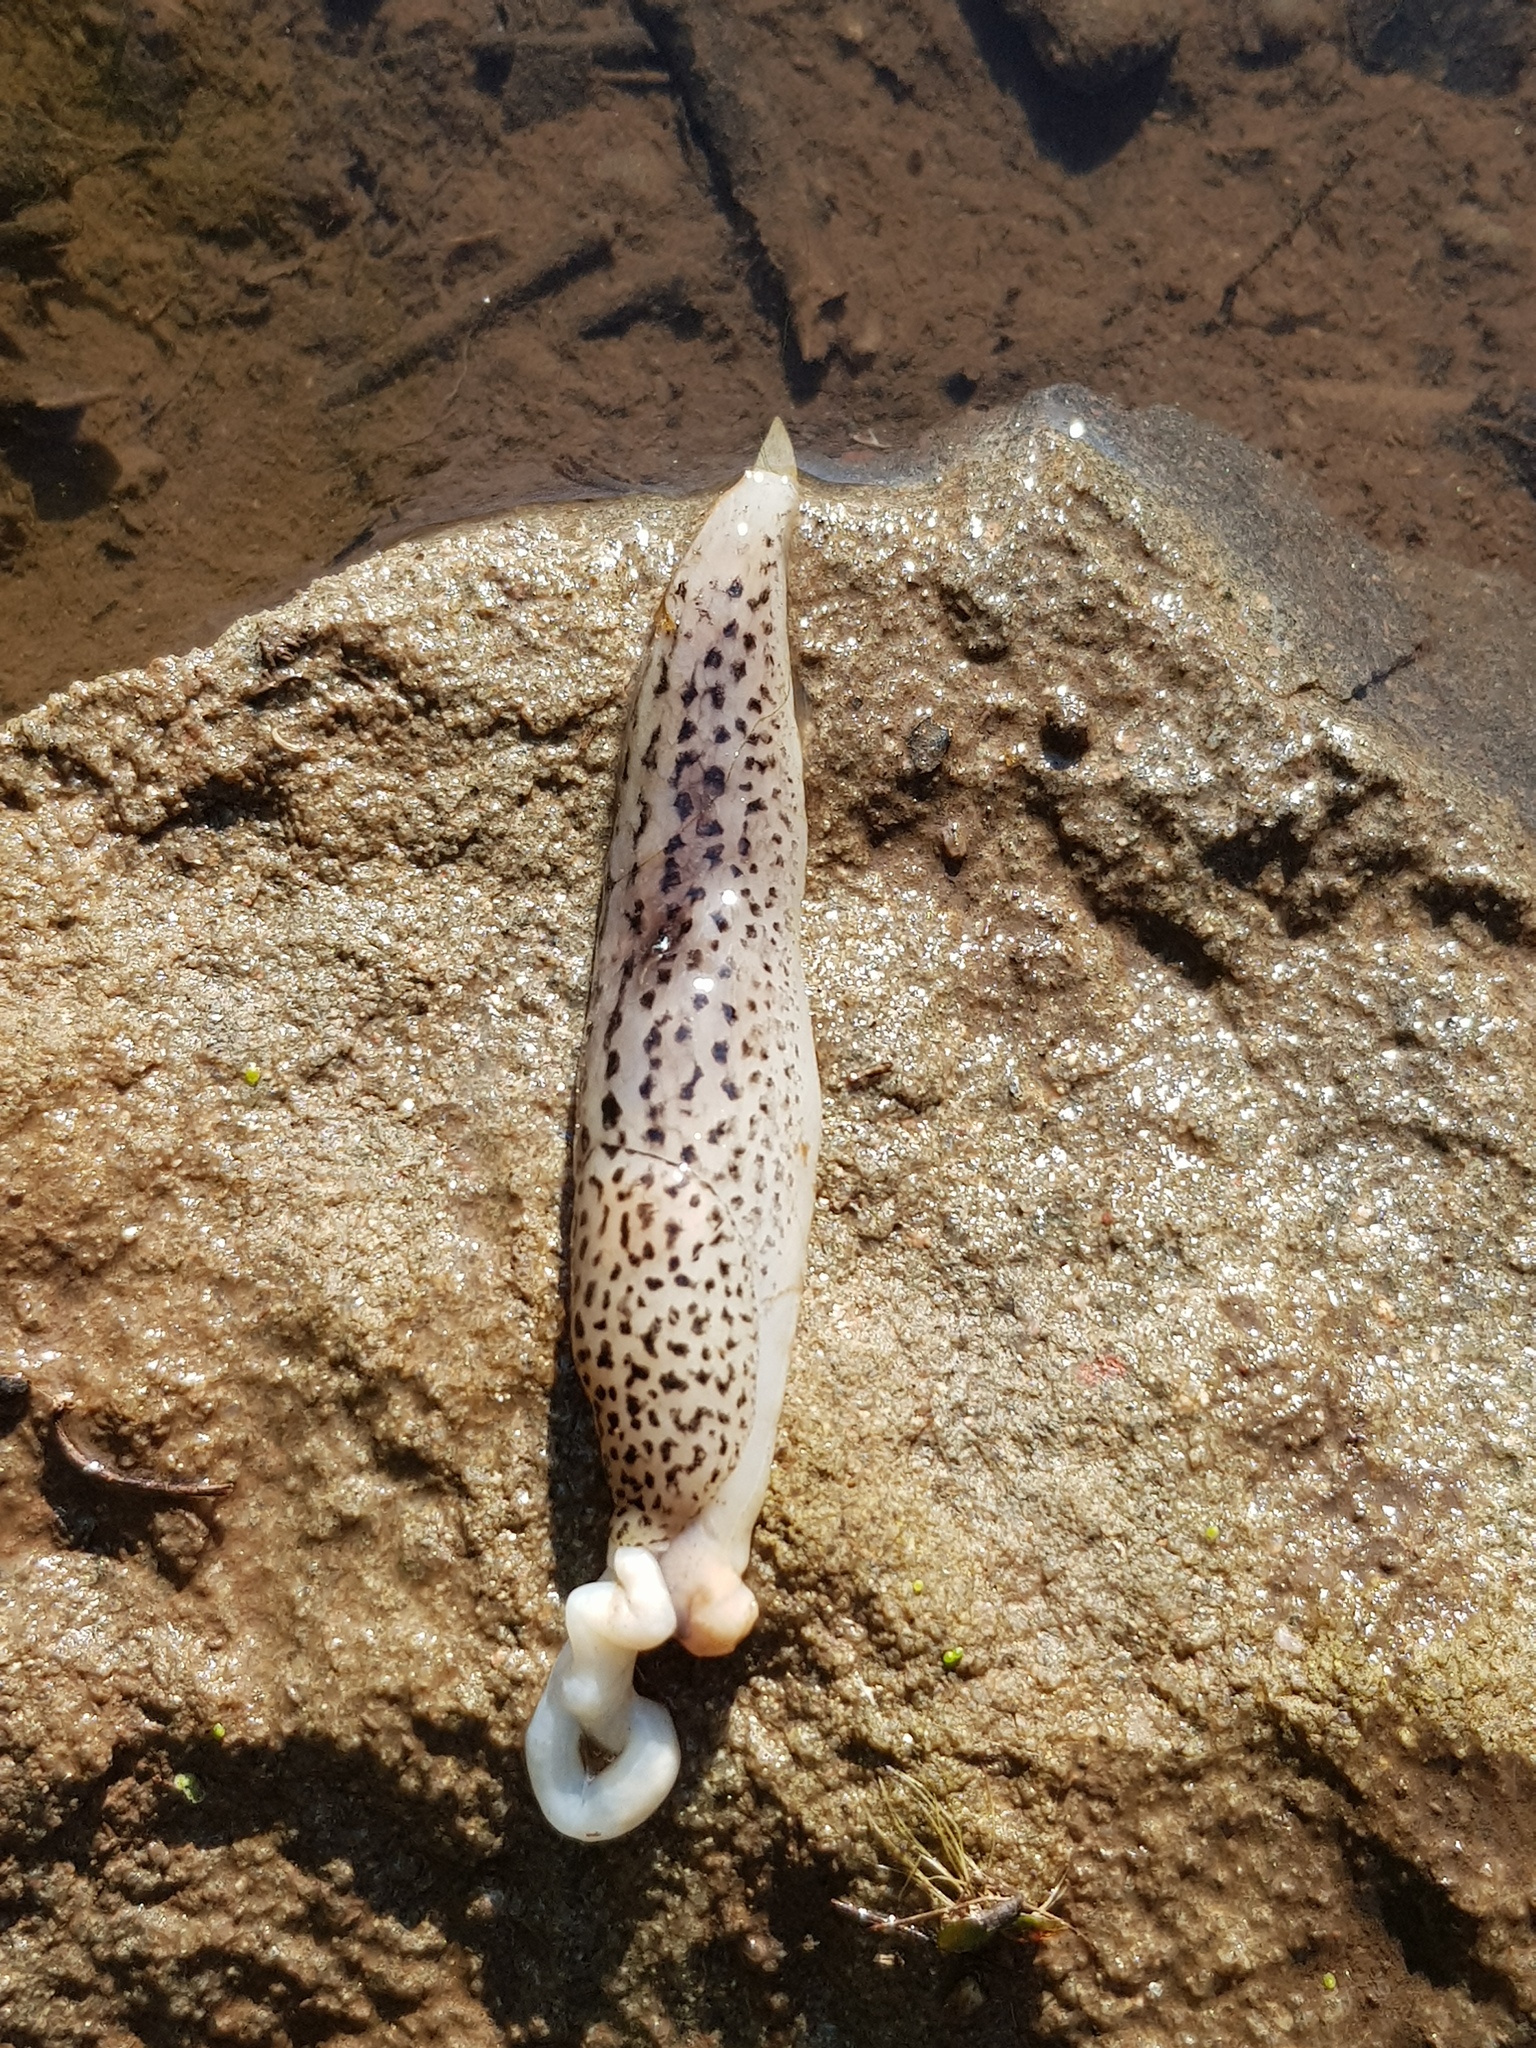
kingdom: Animalia
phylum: Mollusca
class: Gastropoda
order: Stylommatophora
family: Limacidae
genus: Limax
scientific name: Limax maximus
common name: Great grey slug
